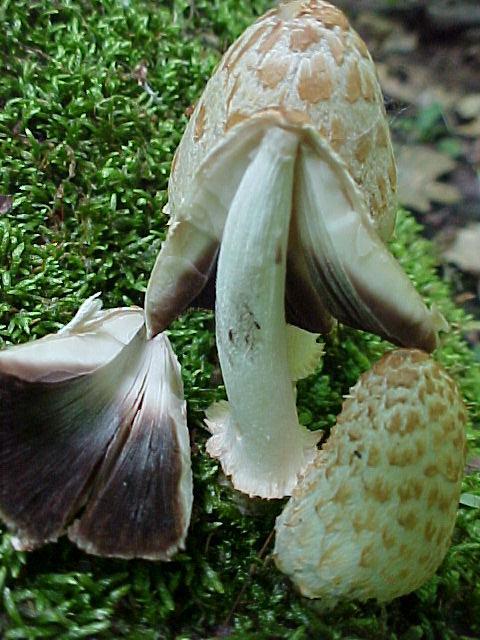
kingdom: Fungi
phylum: Basidiomycota
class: Agaricomycetes
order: Agaricales
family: Psathyrellaceae
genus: Coprinopsis
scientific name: Coprinopsis variegata
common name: Scaly ink cap
